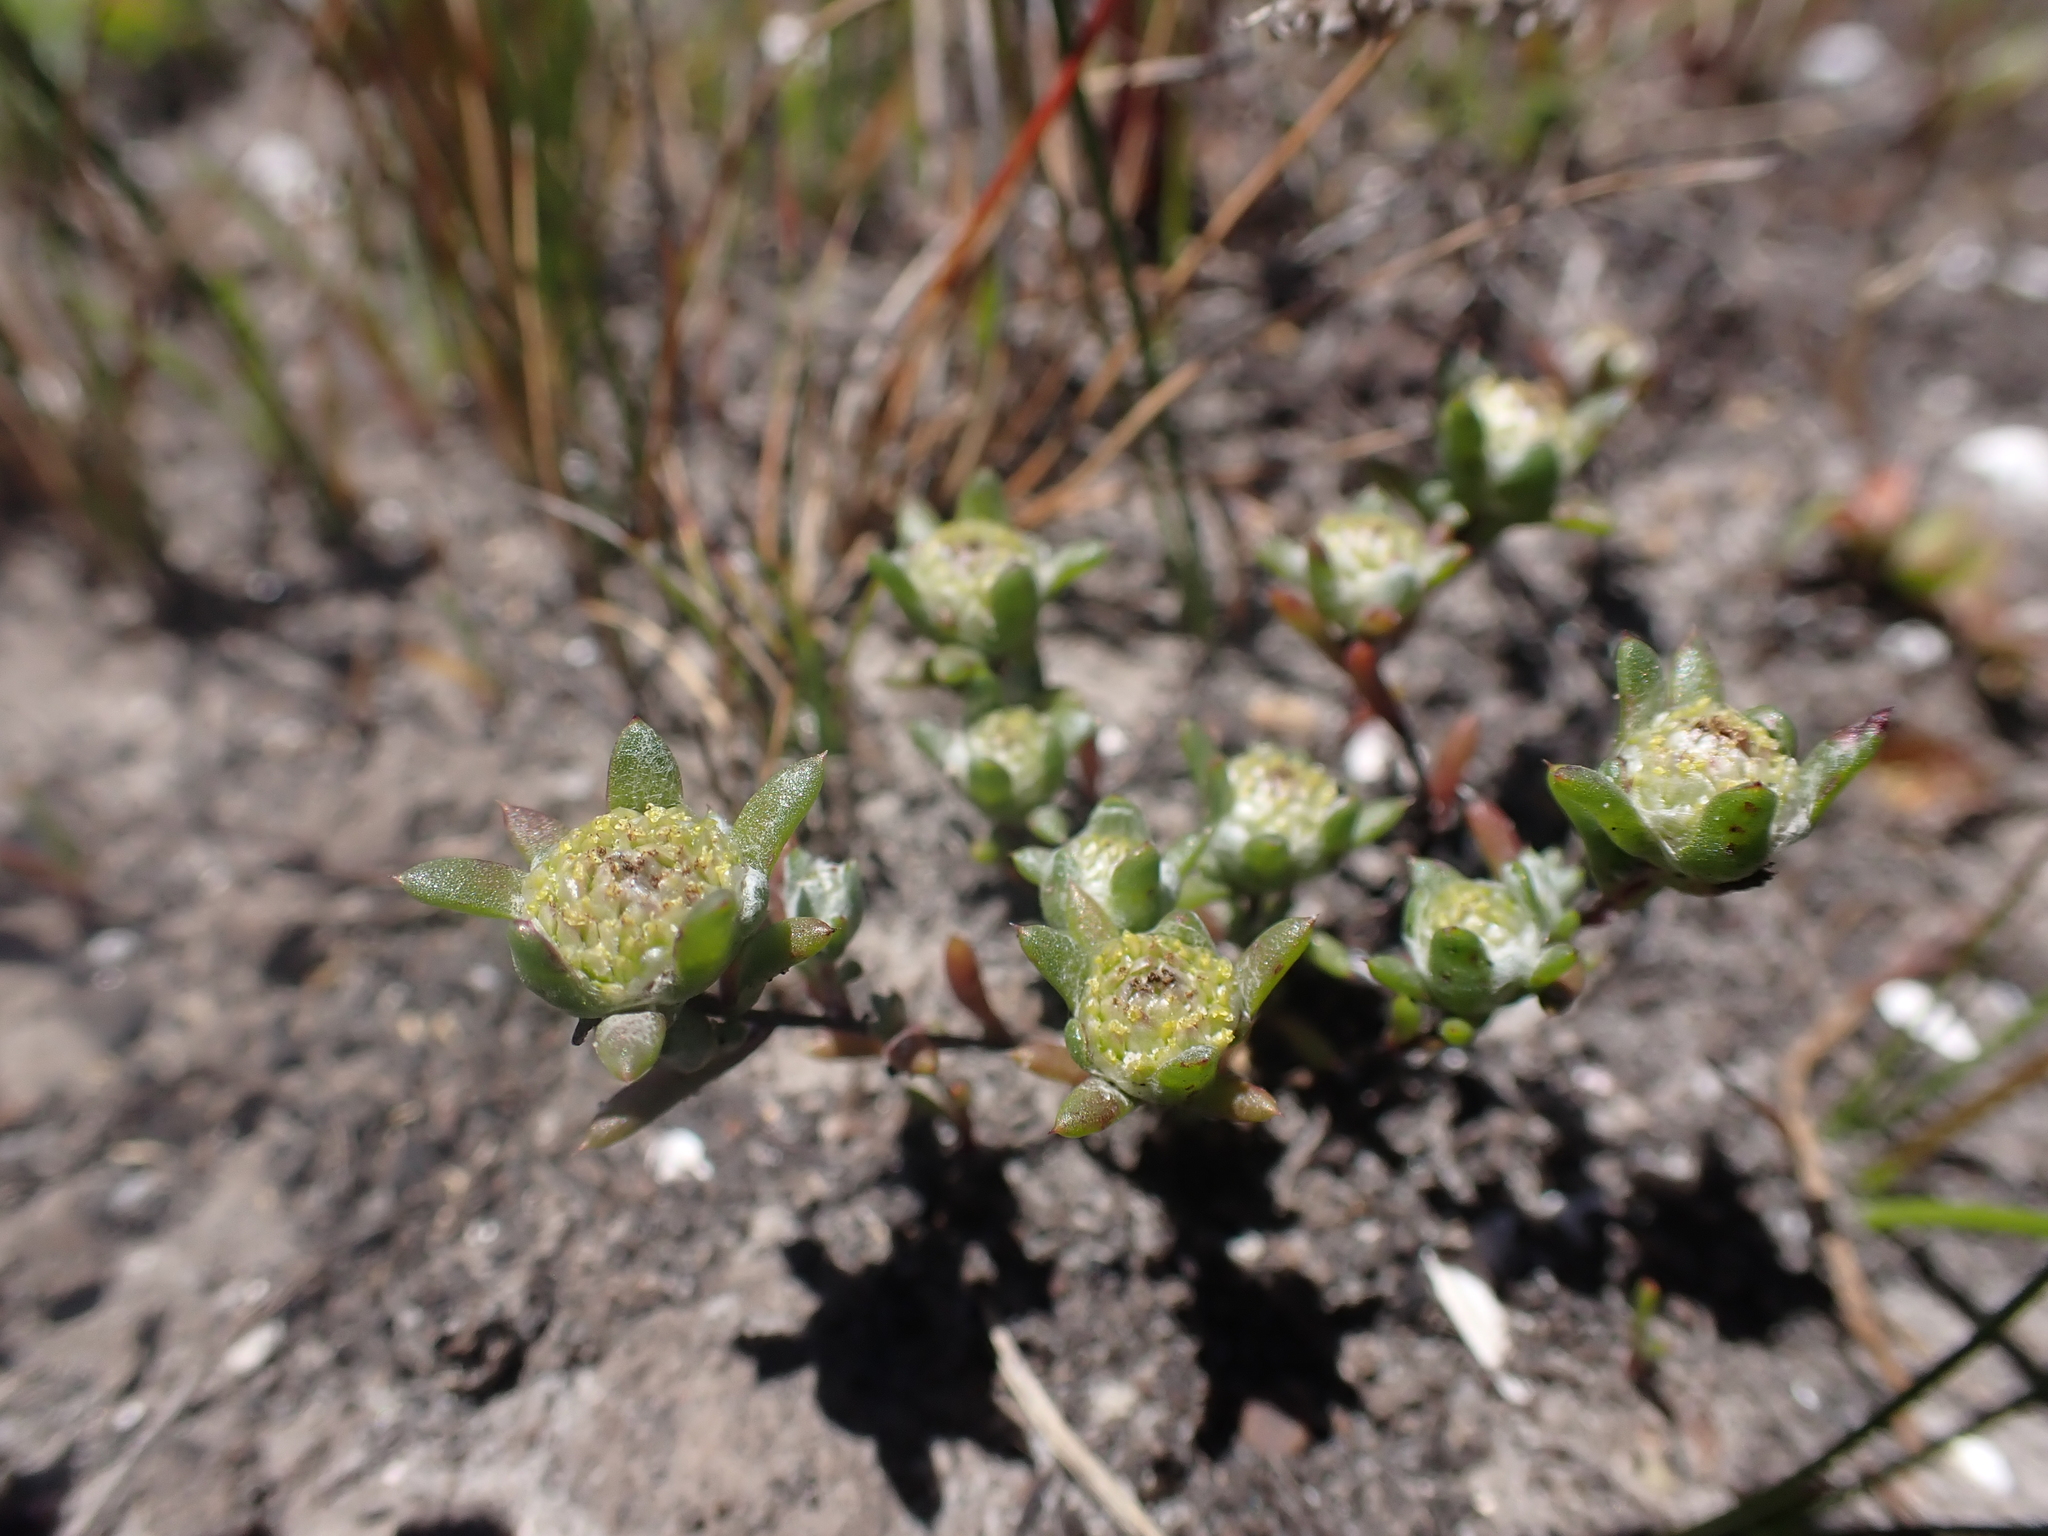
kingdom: Plantae
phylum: Tracheophyta
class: Magnoliopsida
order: Asterales
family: Asteraceae
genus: Angianthus
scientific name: Angianthus preissianus
